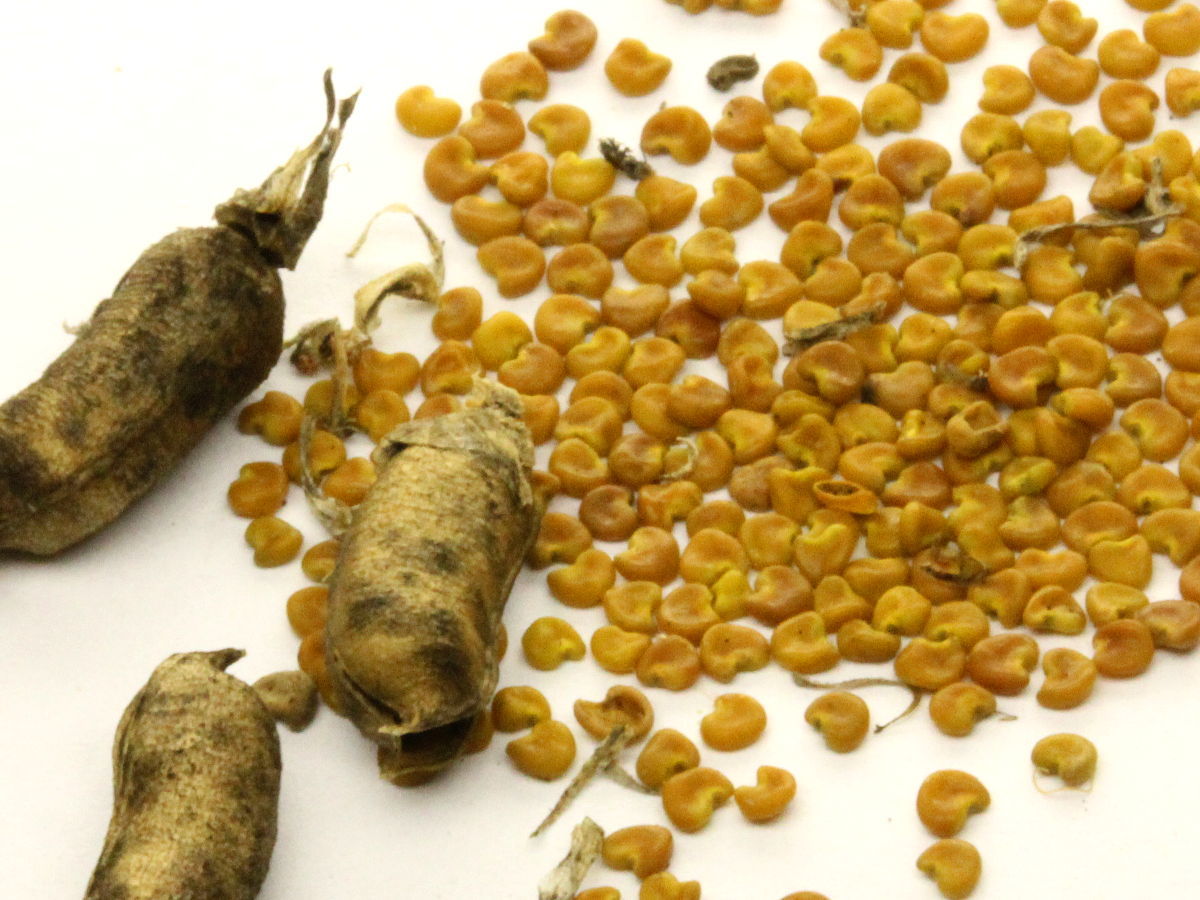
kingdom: Plantae
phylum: Tracheophyta
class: Magnoliopsida
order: Fabales
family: Fabaceae
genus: Astragalus
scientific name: Astragalus canadensis
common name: Canada milk-vetch
